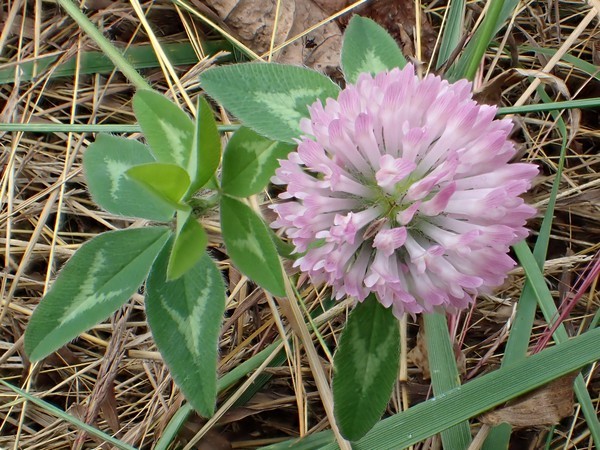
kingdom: Plantae
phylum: Tracheophyta
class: Magnoliopsida
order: Fabales
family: Fabaceae
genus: Trifolium
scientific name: Trifolium pratense
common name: Red clover
